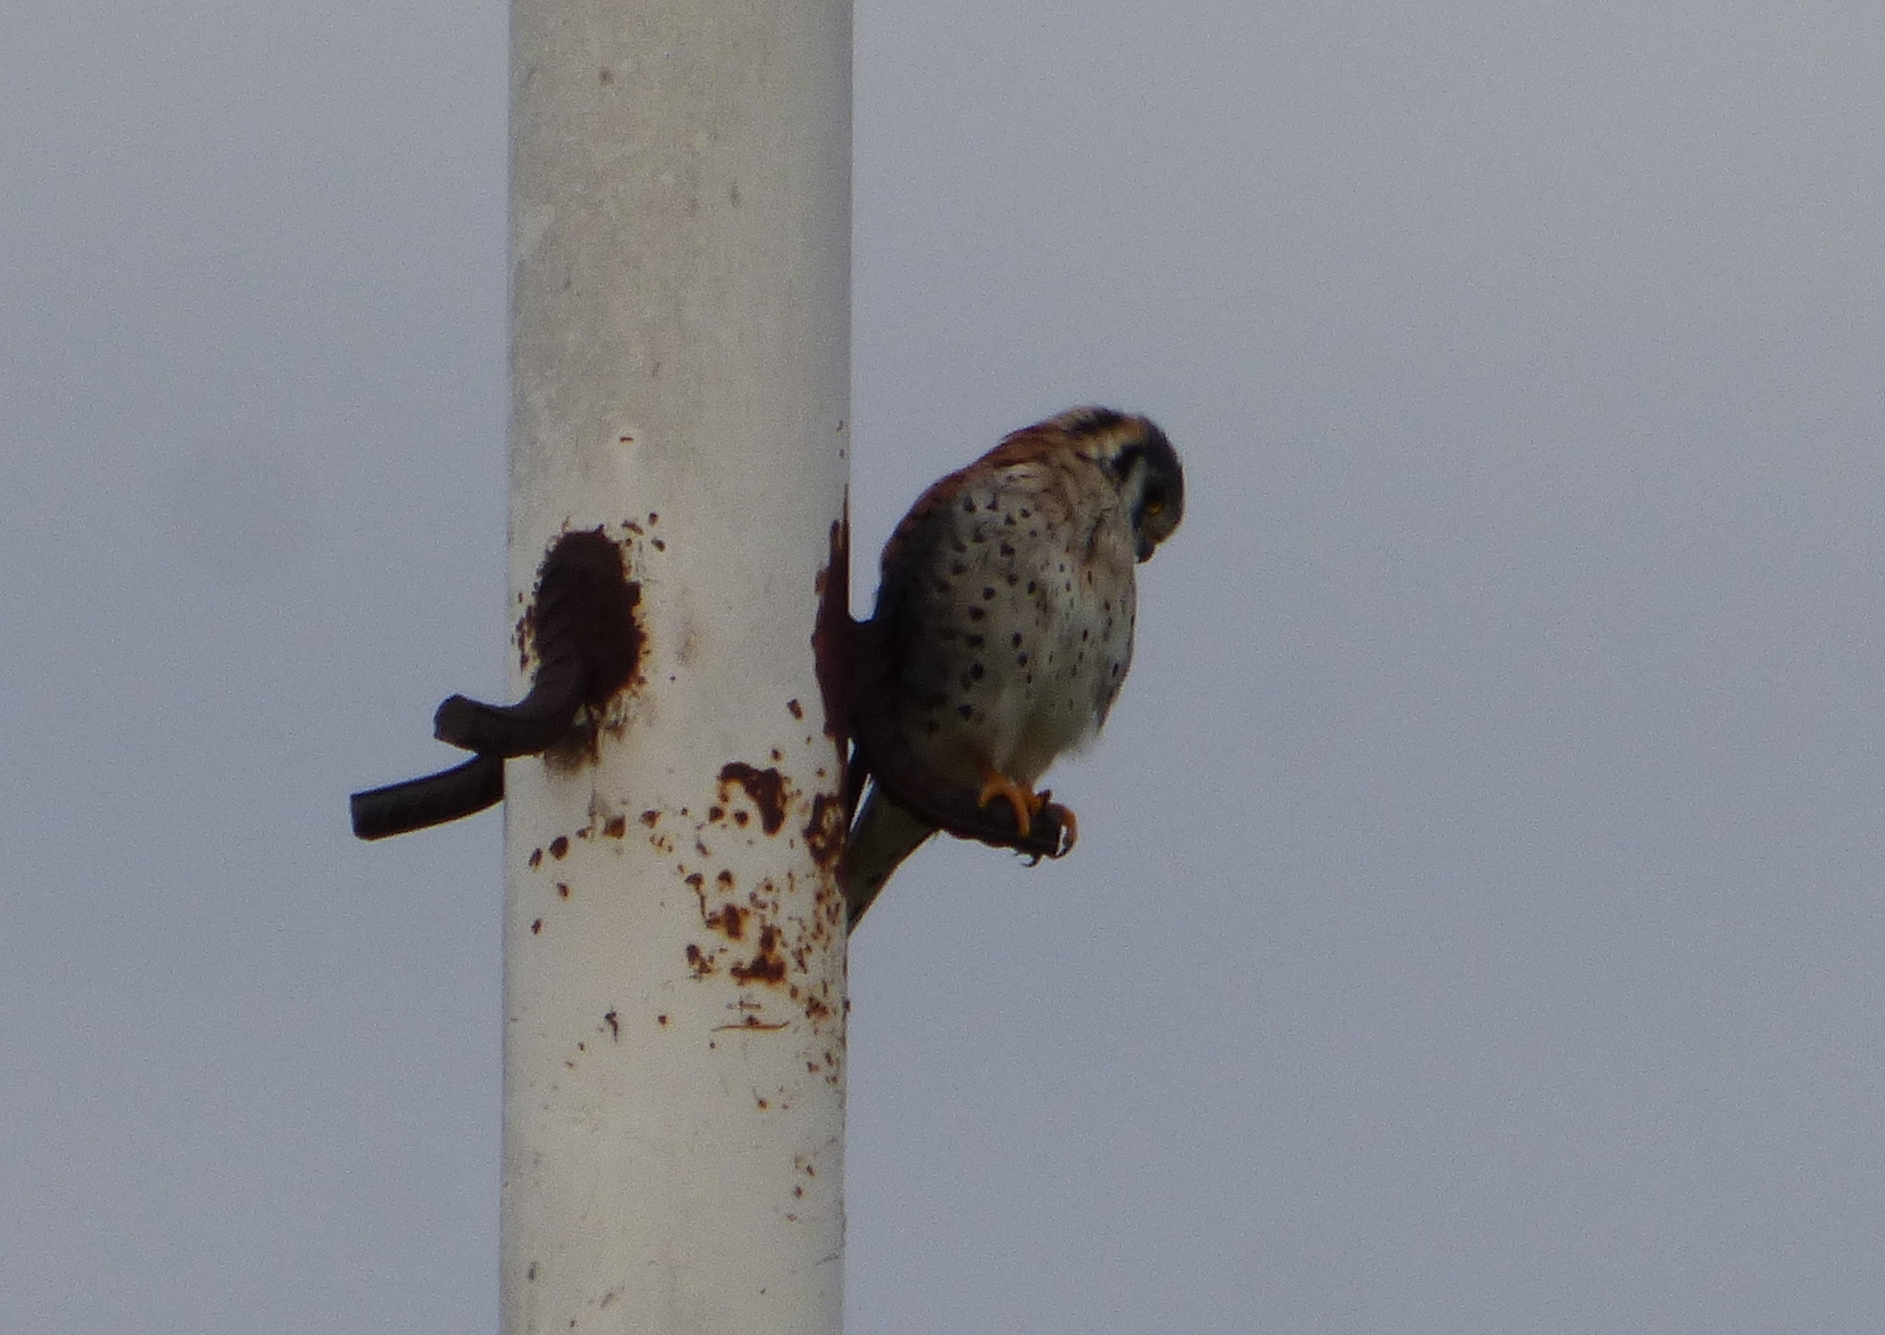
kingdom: Animalia
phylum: Chordata
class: Aves
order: Falconiformes
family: Falconidae
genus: Falco
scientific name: Falco sparverius
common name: American kestrel
